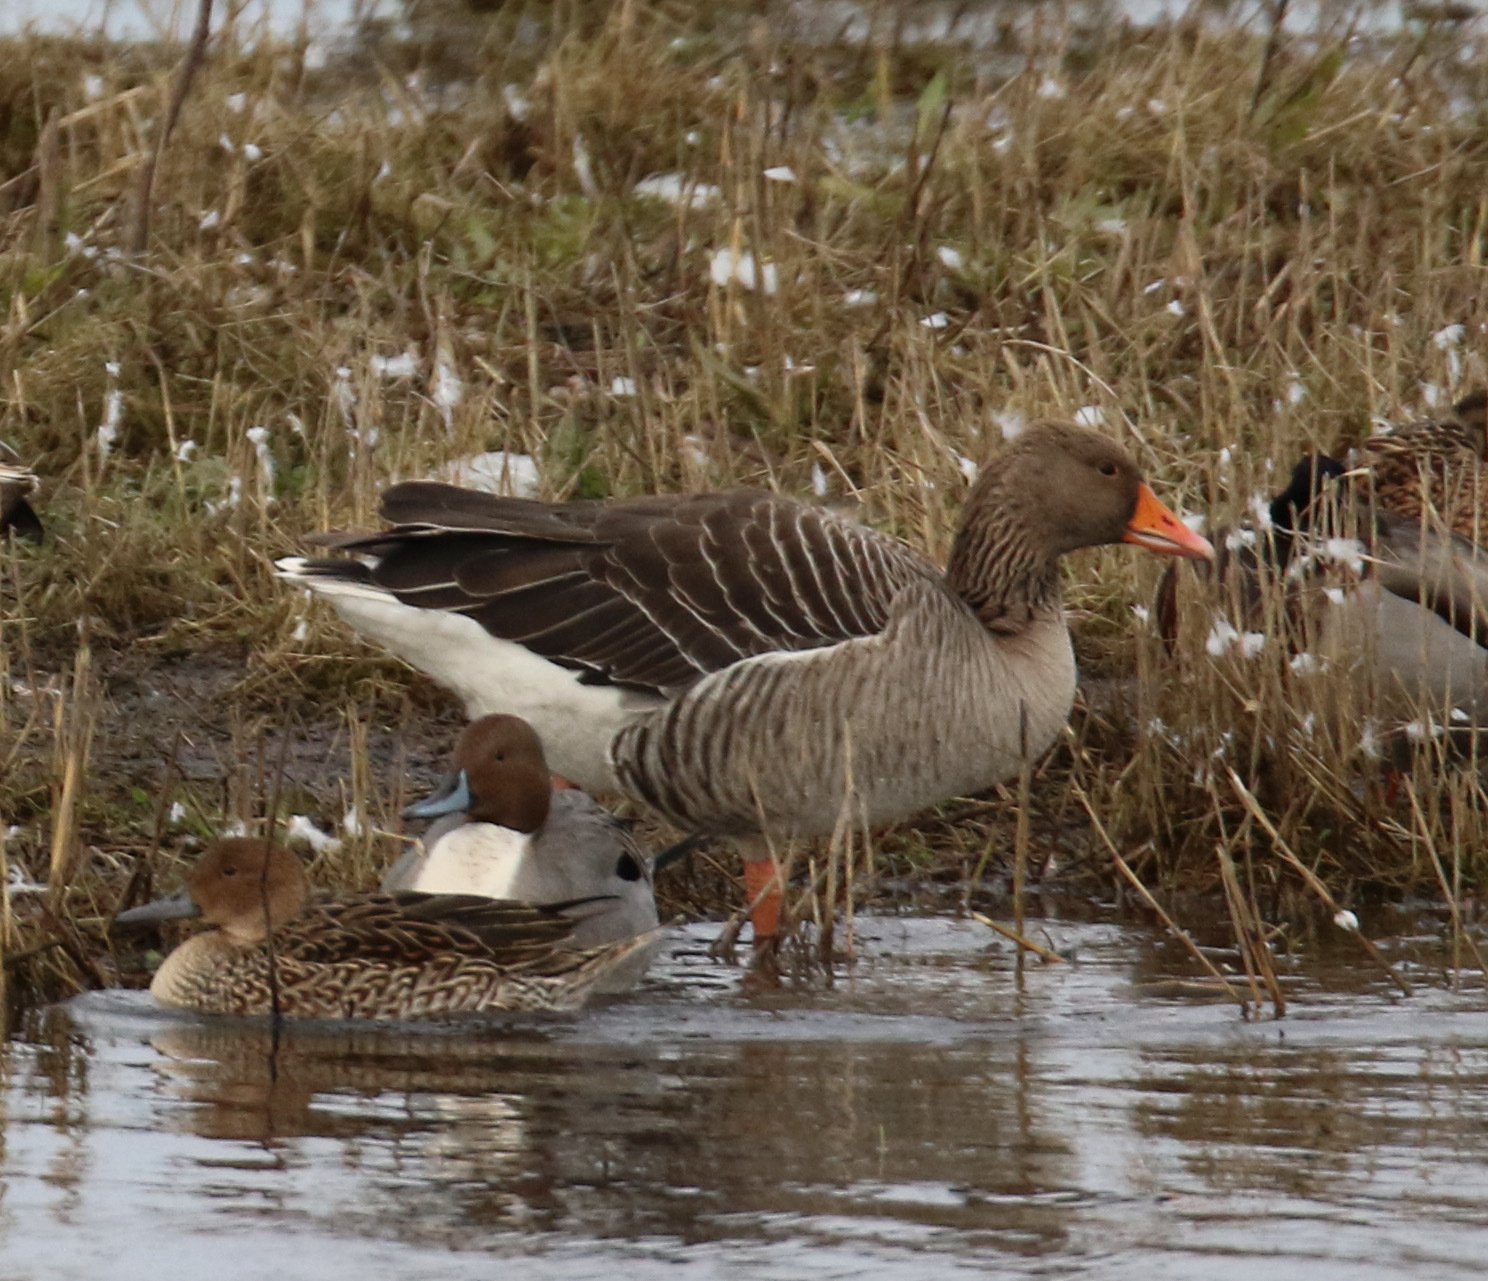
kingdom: Animalia
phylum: Chordata
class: Aves
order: Anseriformes
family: Anatidae
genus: Anser
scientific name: Anser anser
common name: Greylag goose
